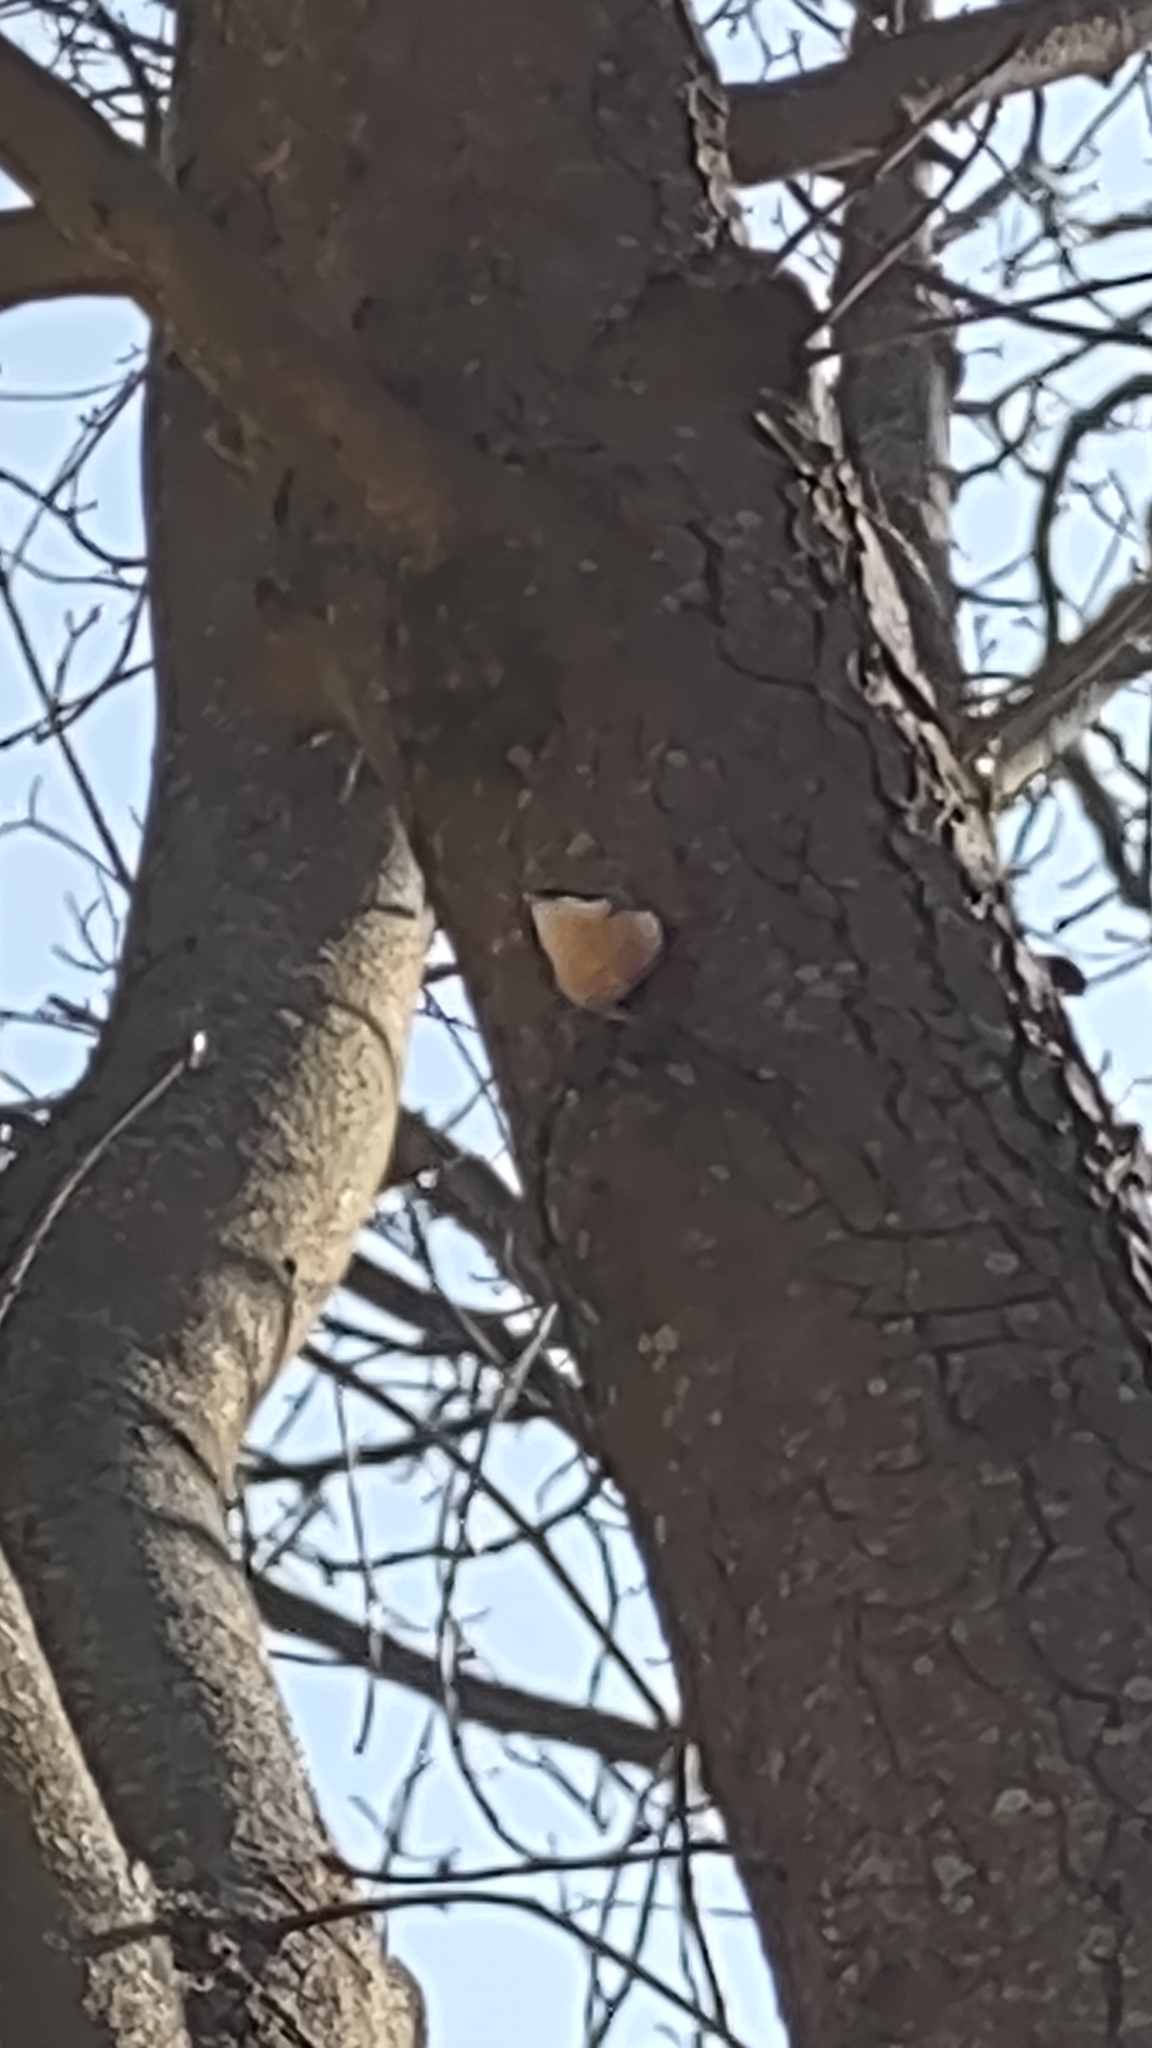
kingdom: Animalia
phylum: Chordata
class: Aves
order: Passeriformes
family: Sittidae
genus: Sitta
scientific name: Sitta europaea
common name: Eurasian nuthatch
